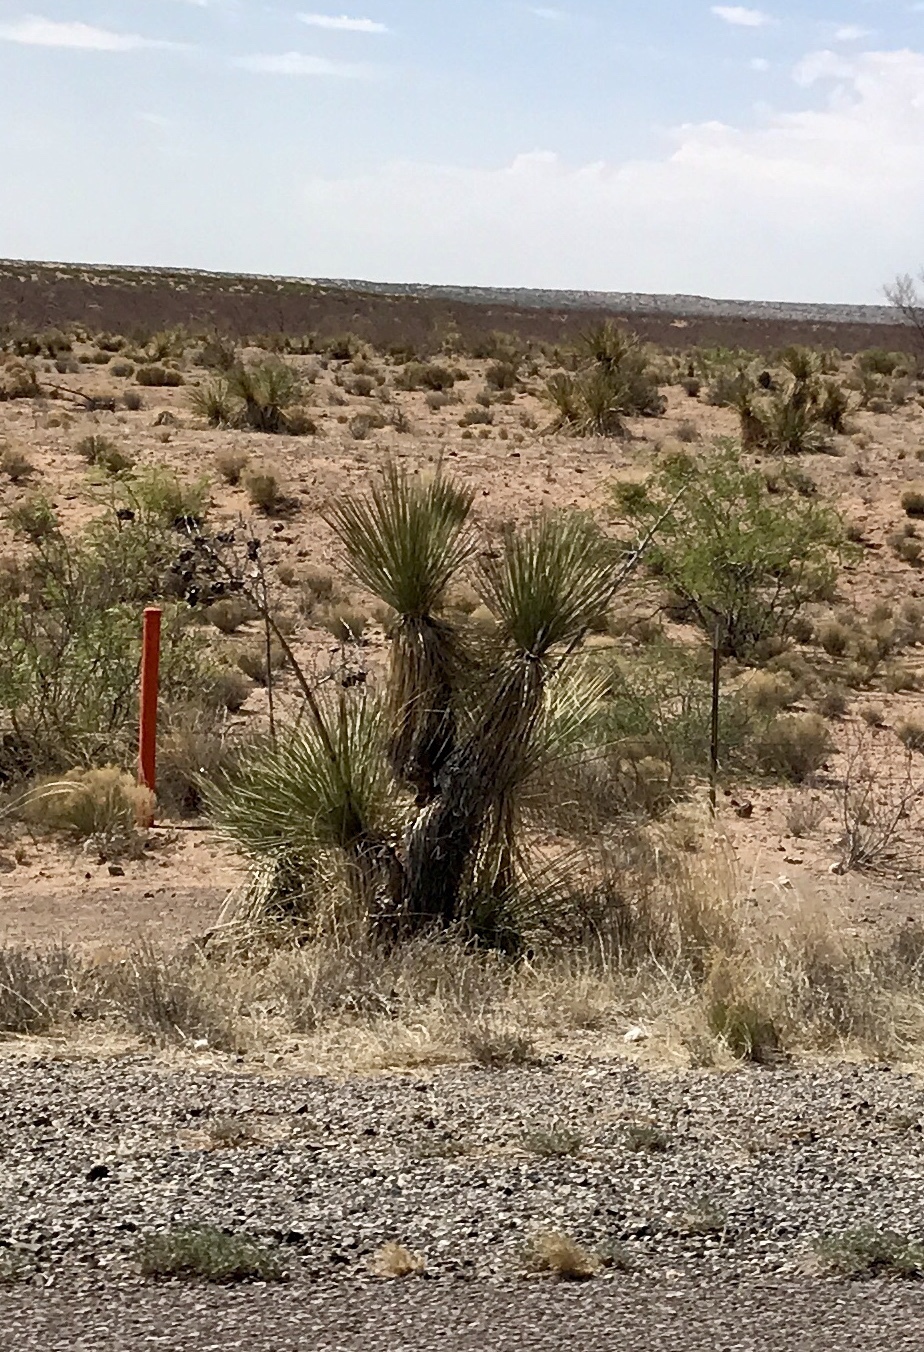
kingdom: Plantae
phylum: Tracheophyta
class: Liliopsida
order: Asparagales
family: Asparagaceae
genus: Yucca
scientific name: Yucca elata
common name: Palmella
